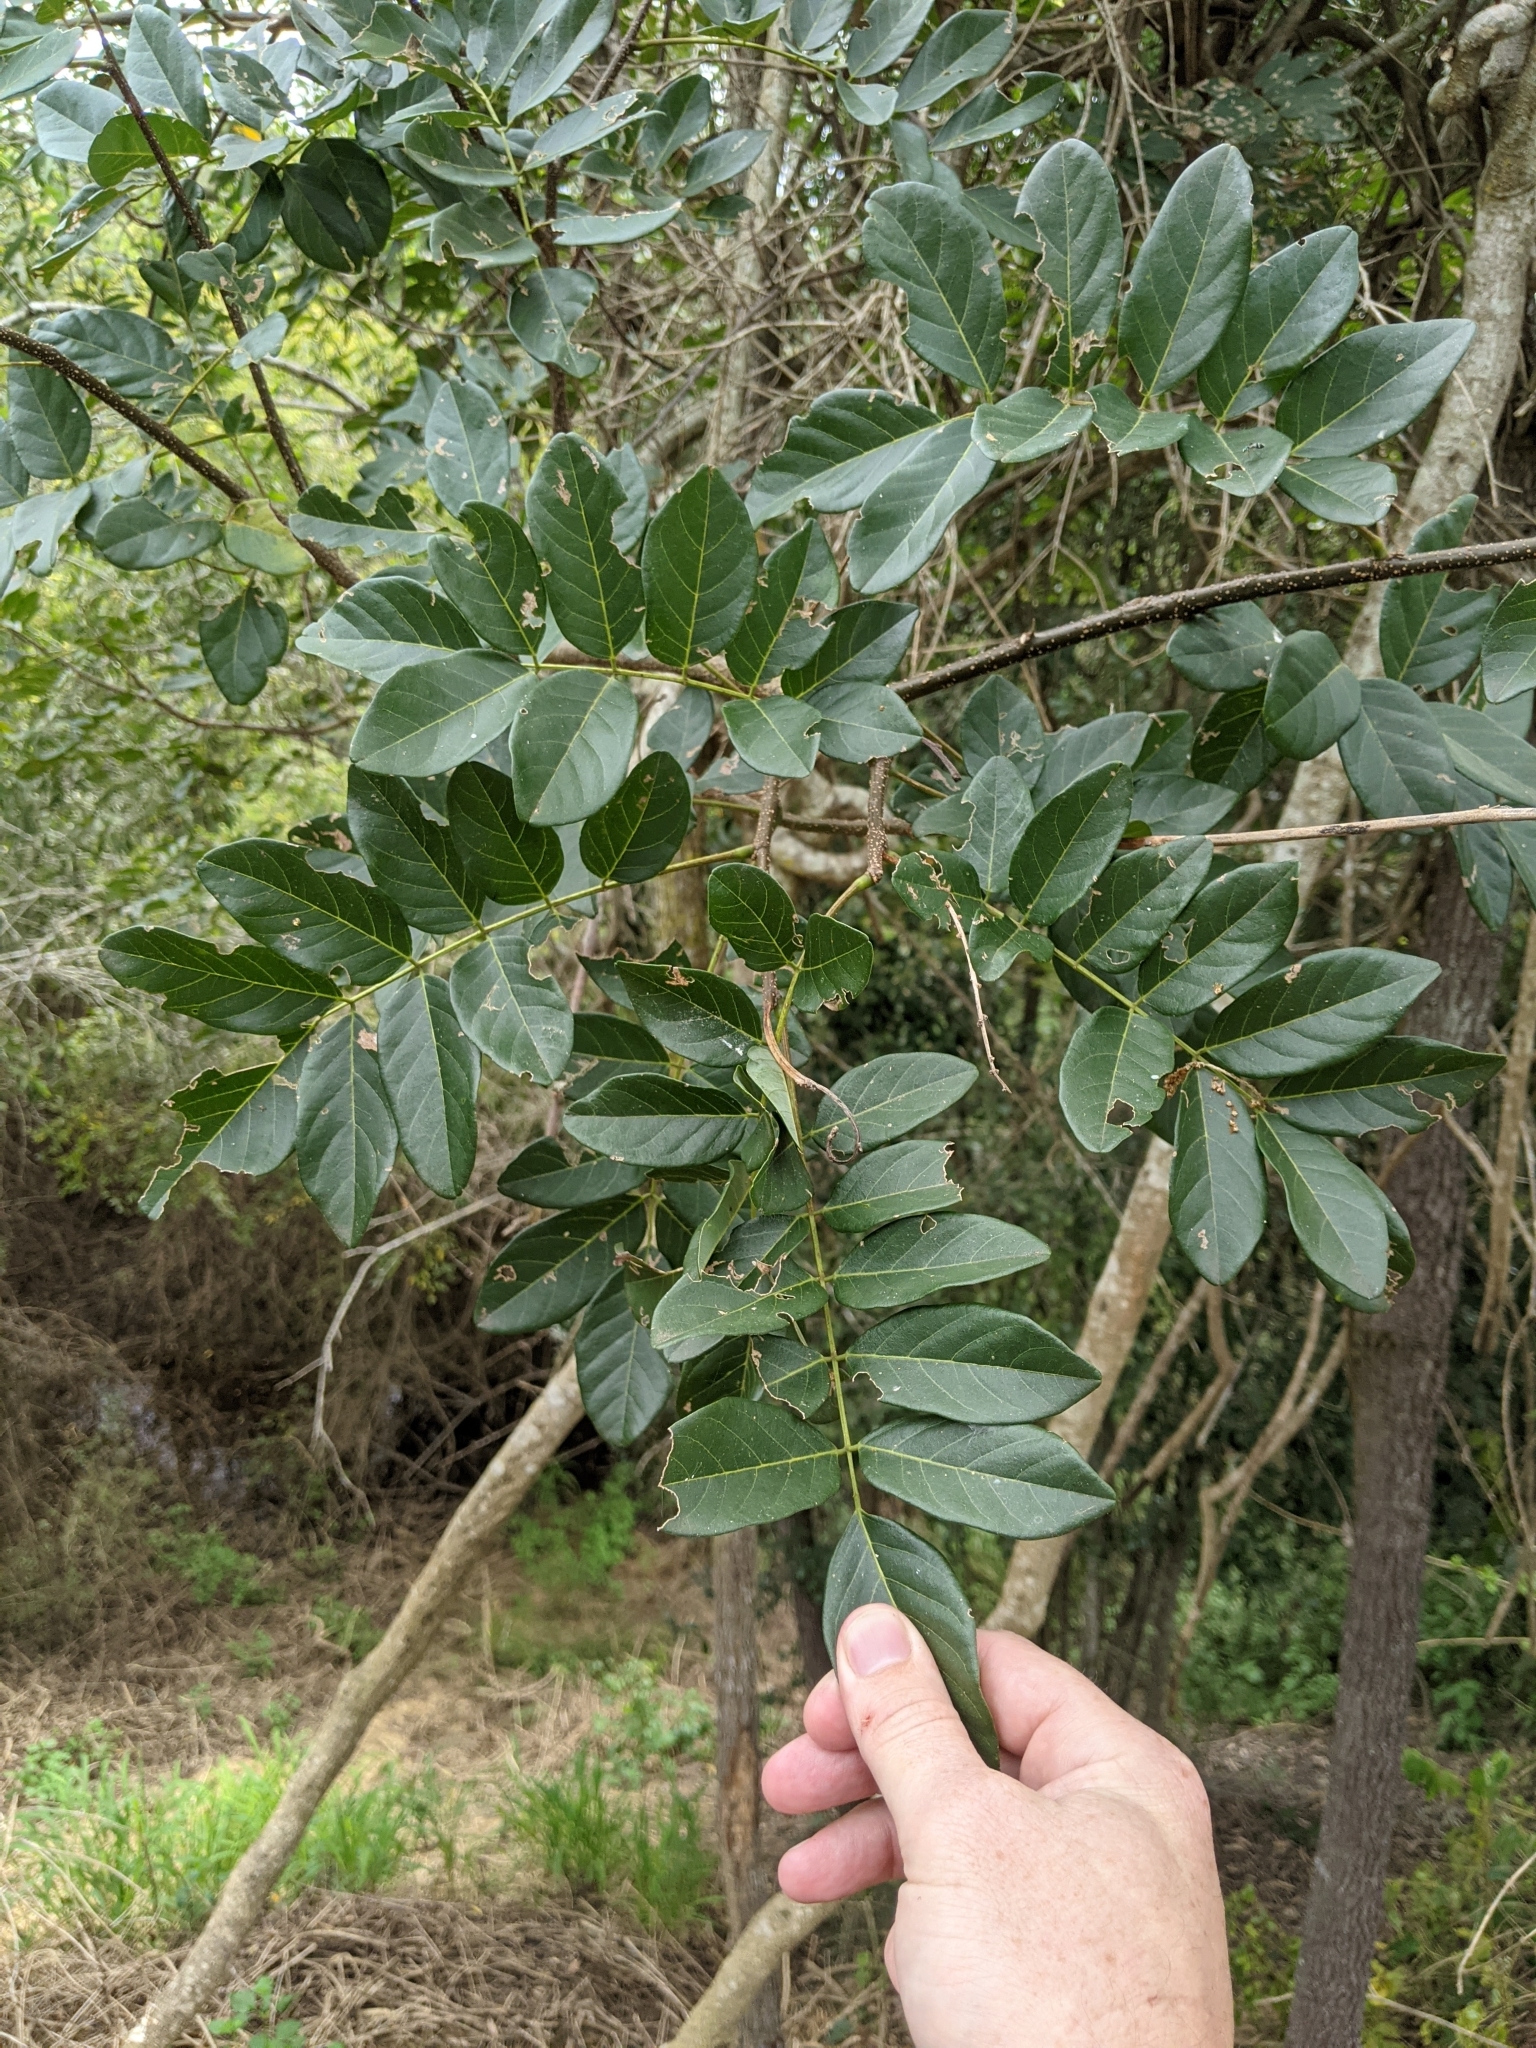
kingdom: Plantae
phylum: Tracheophyta
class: Magnoliopsida
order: Fabales
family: Fabaceae
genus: Brachypterum
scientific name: Brachypterum involutum
